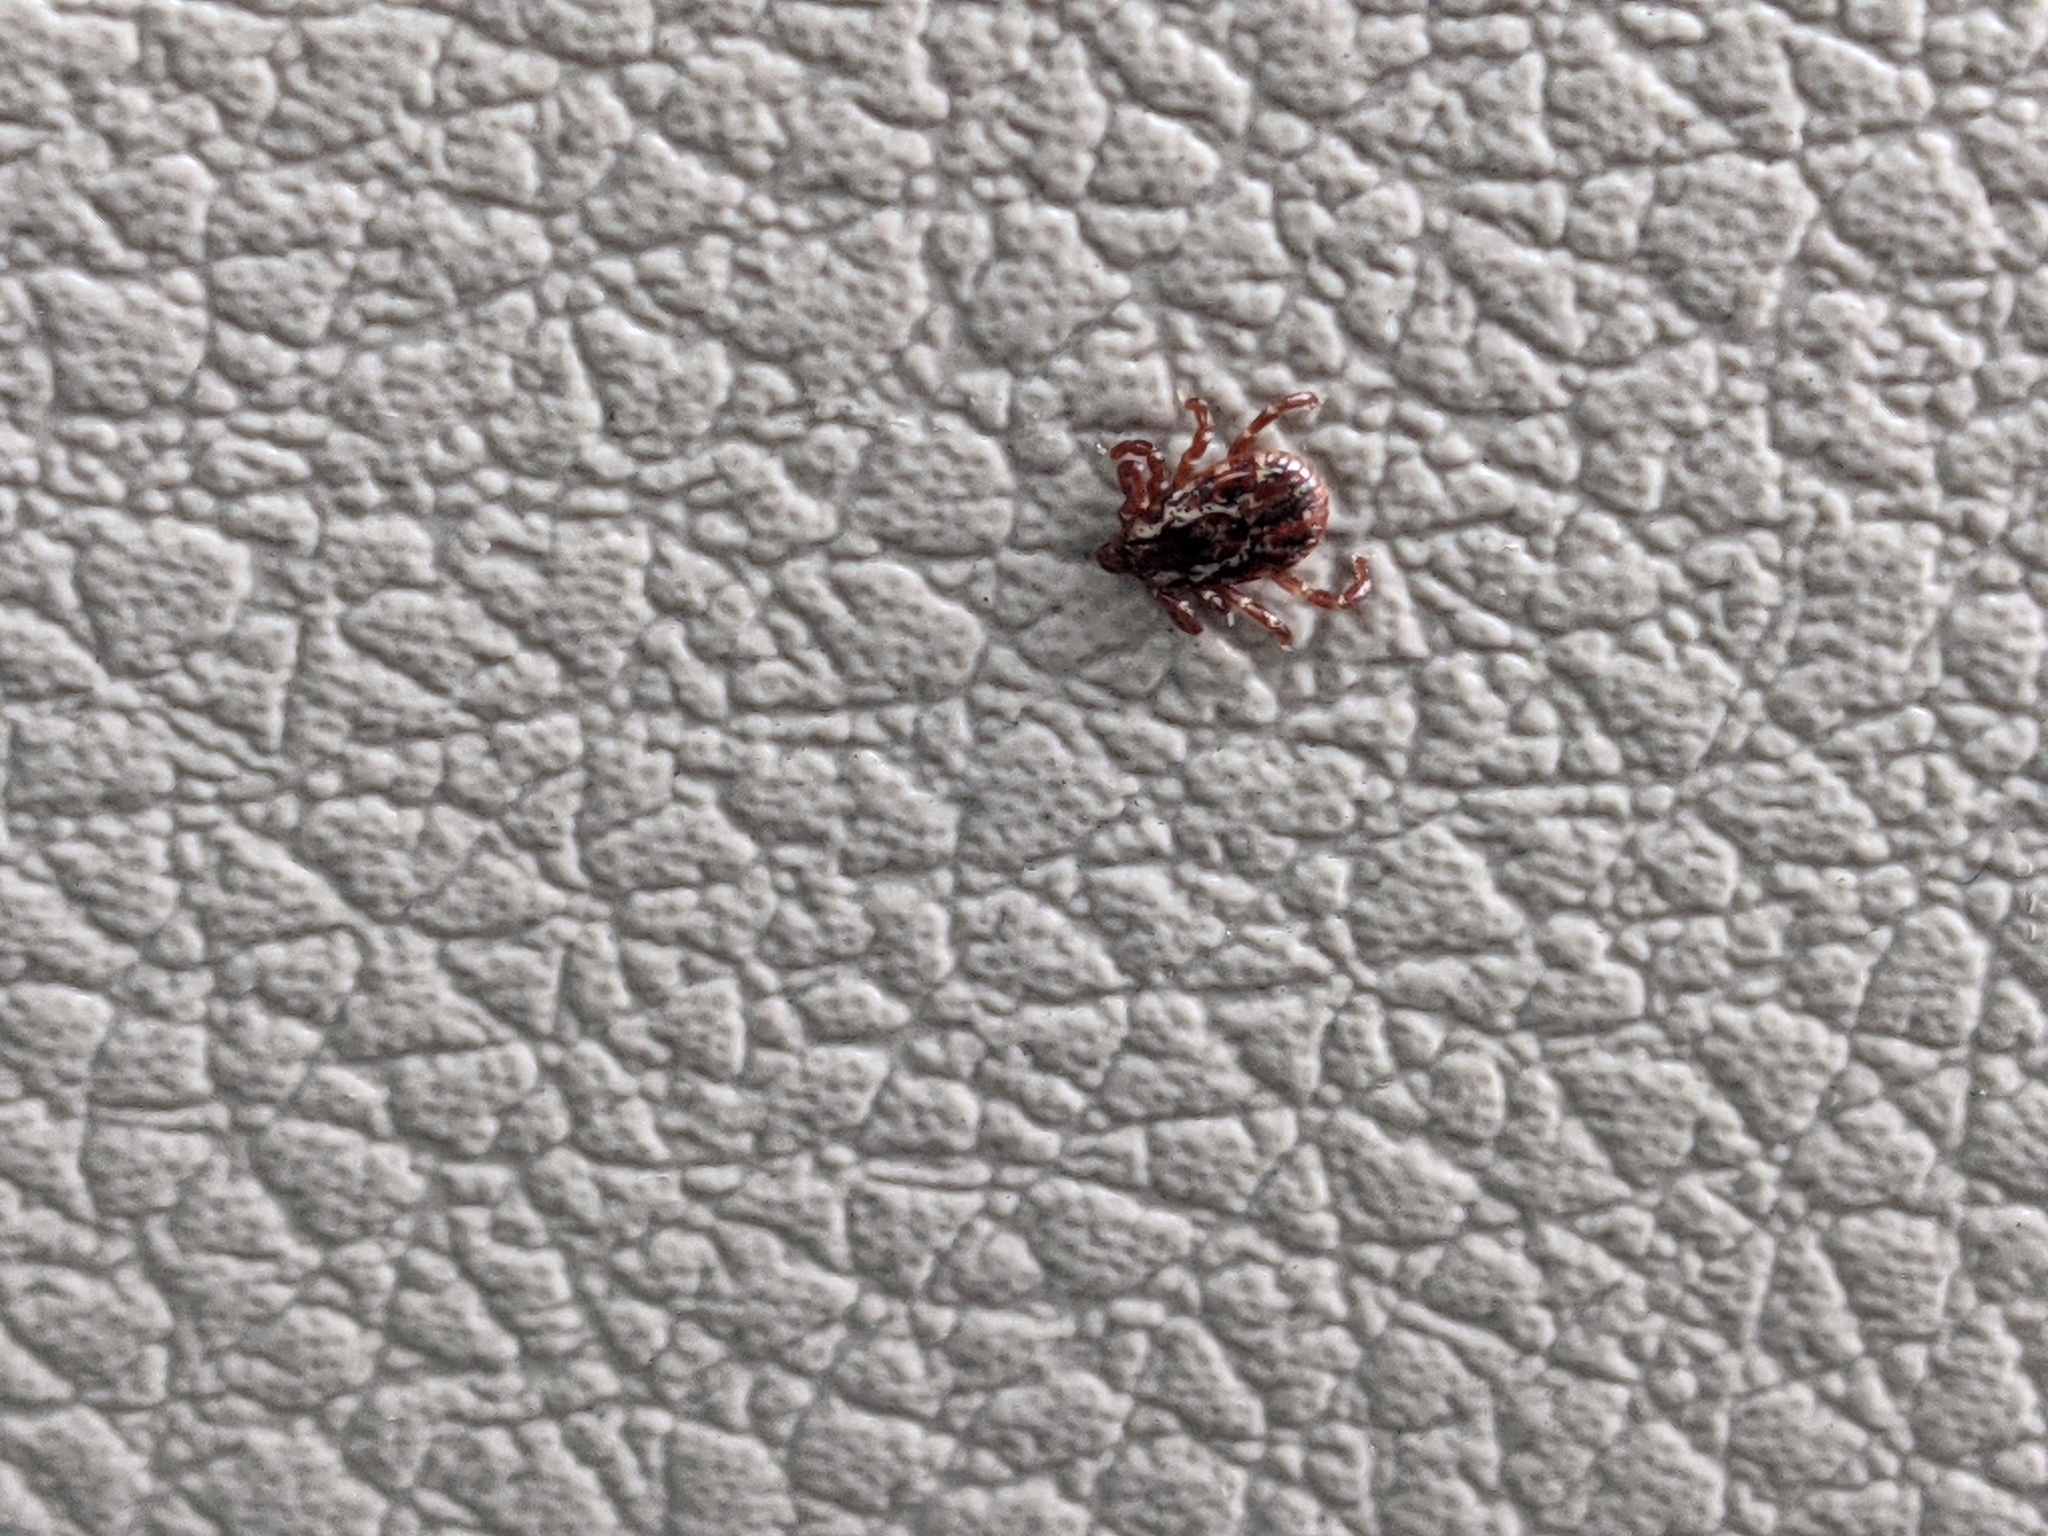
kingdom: Animalia
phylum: Arthropoda
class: Arachnida
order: Ixodida
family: Ixodidae
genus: Dermacentor
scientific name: Dermacentor variabilis
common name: American dog tick
